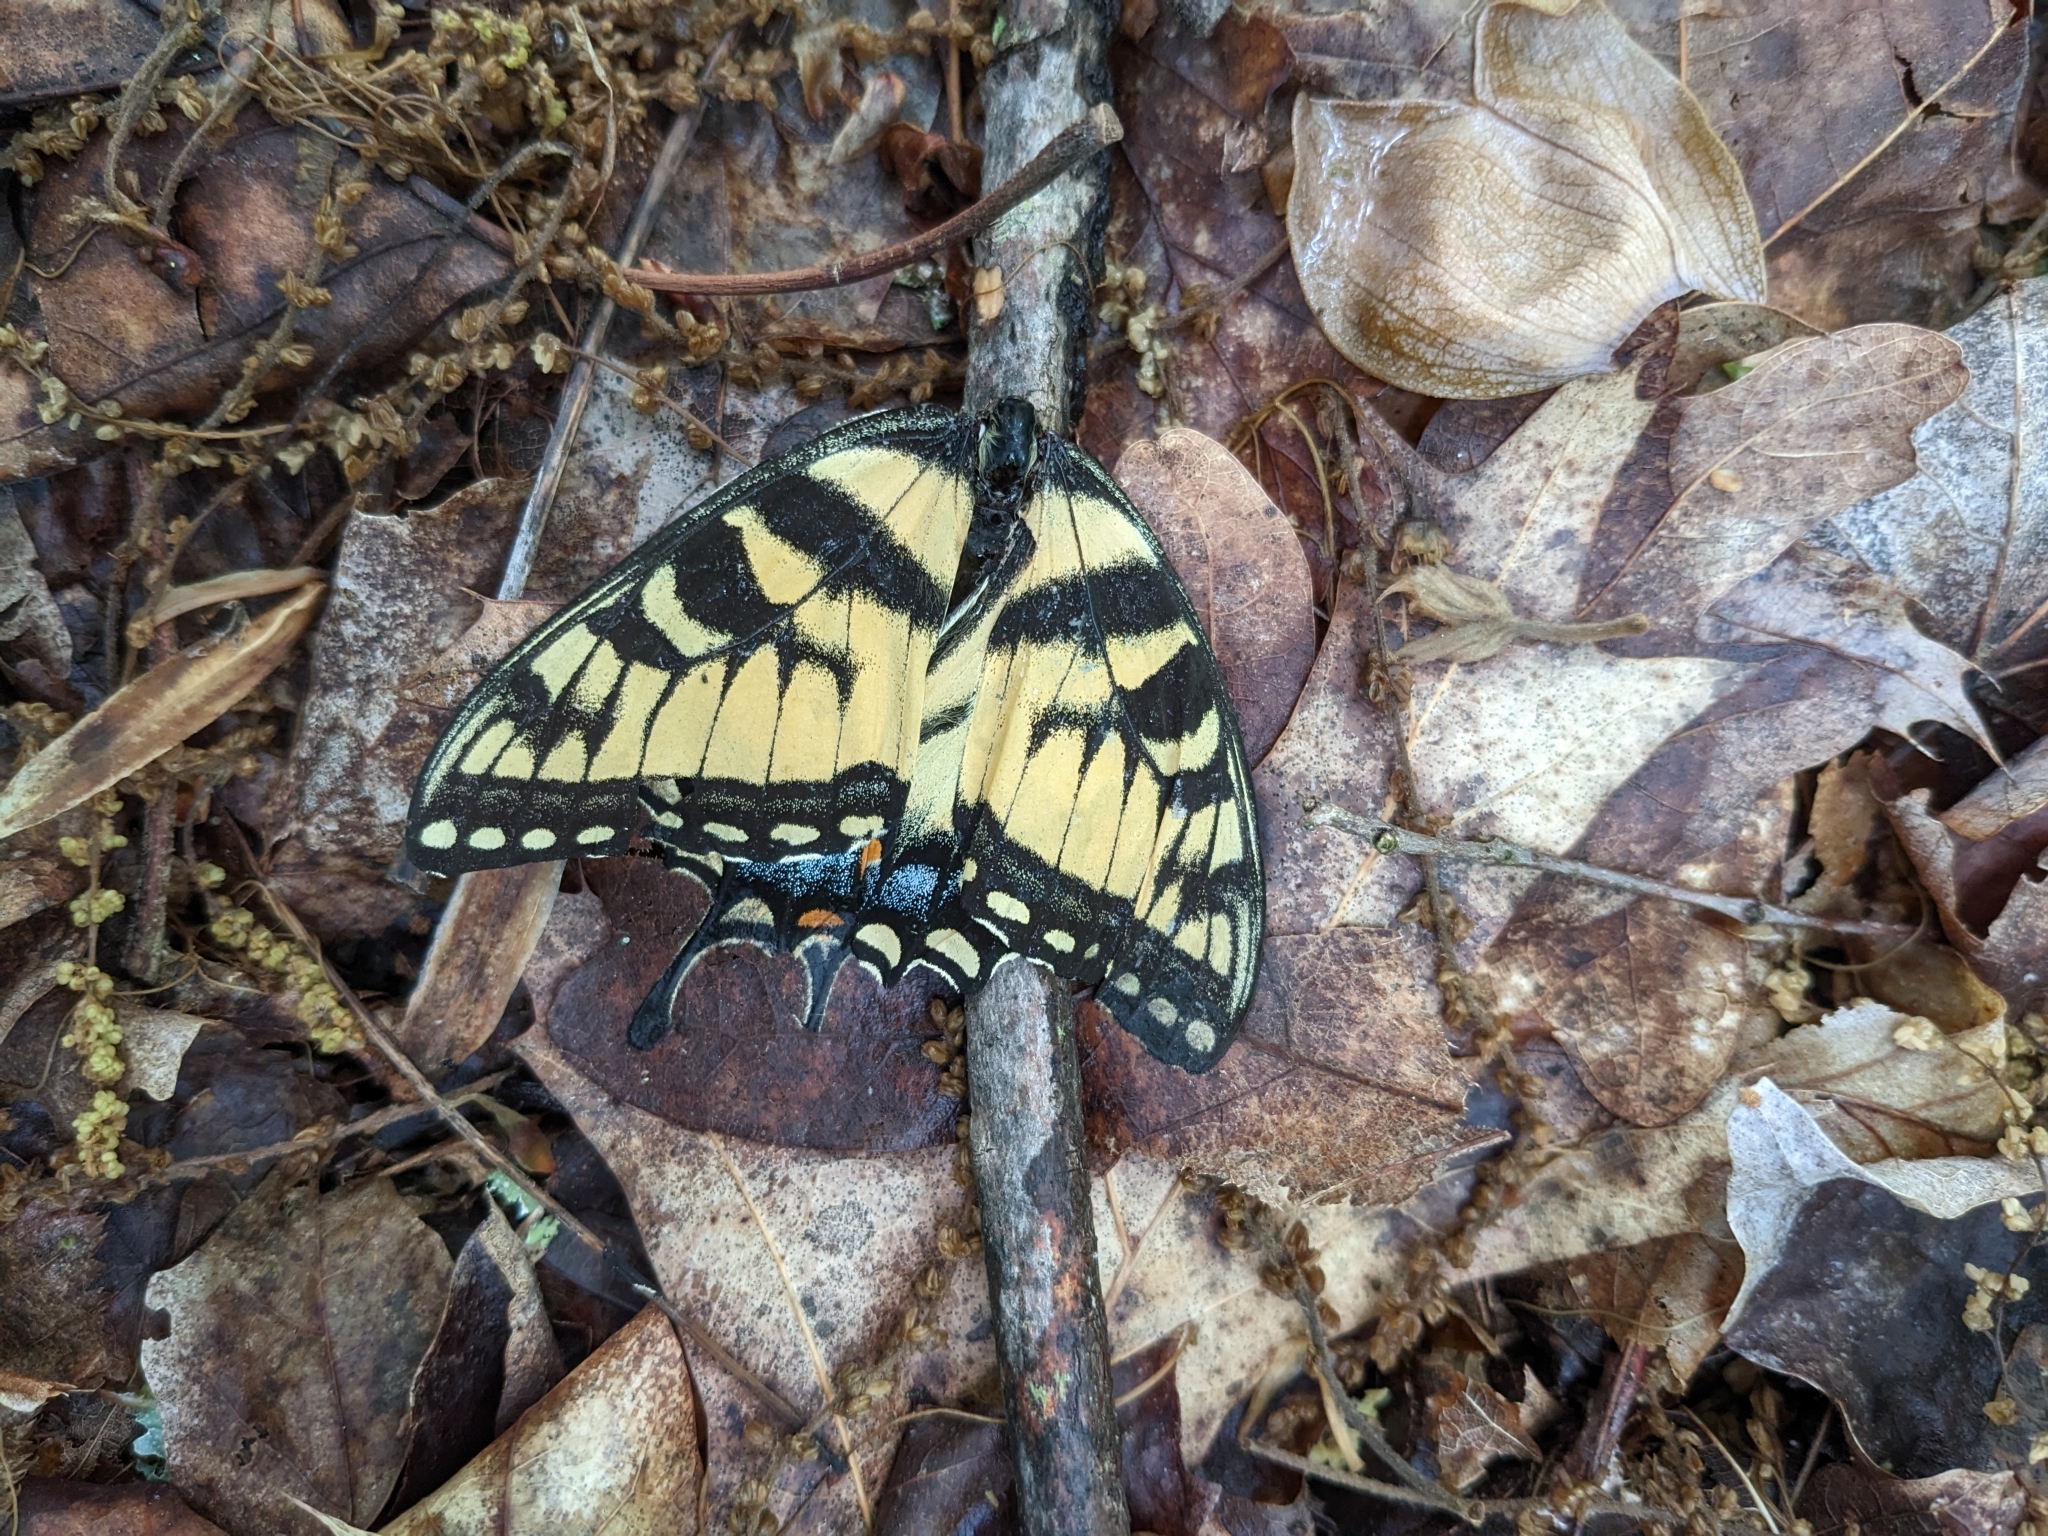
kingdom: Animalia
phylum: Arthropoda
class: Insecta
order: Lepidoptera
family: Papilionidae
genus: Papilio
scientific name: Papilio glaucus
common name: Tiger swallowtail
